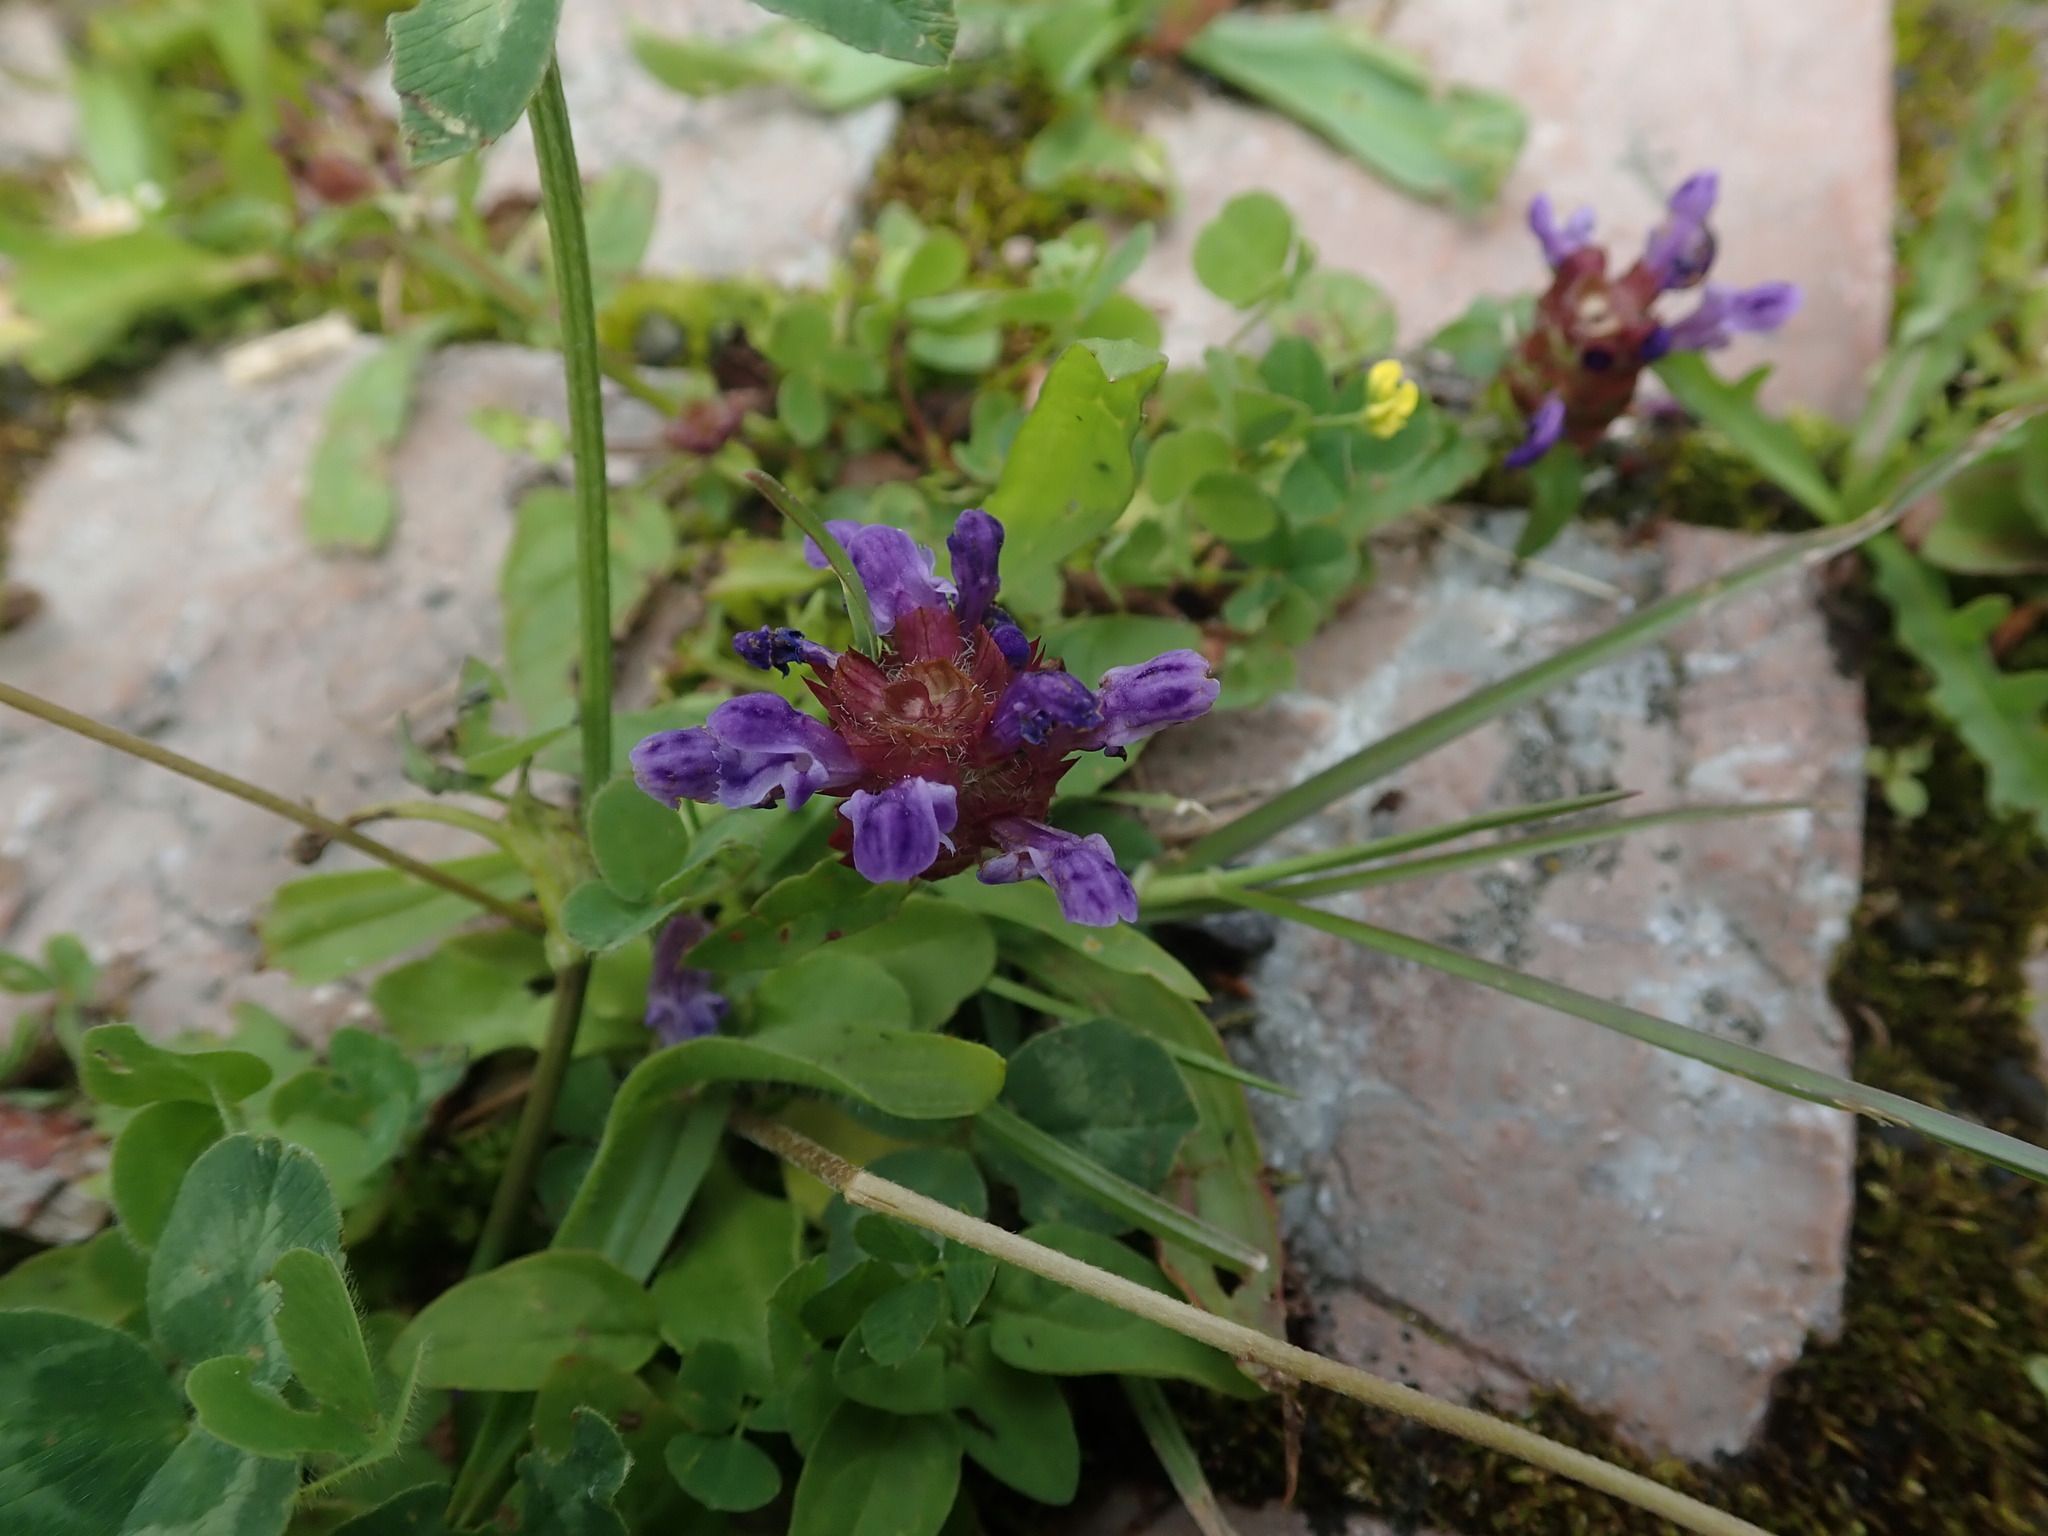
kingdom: Plantae
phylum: Tracheophyta
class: Magnoliopsida
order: Lamiales
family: Lamiaceae
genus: Prunella
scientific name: Prunella vulgaris
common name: Heal-all
